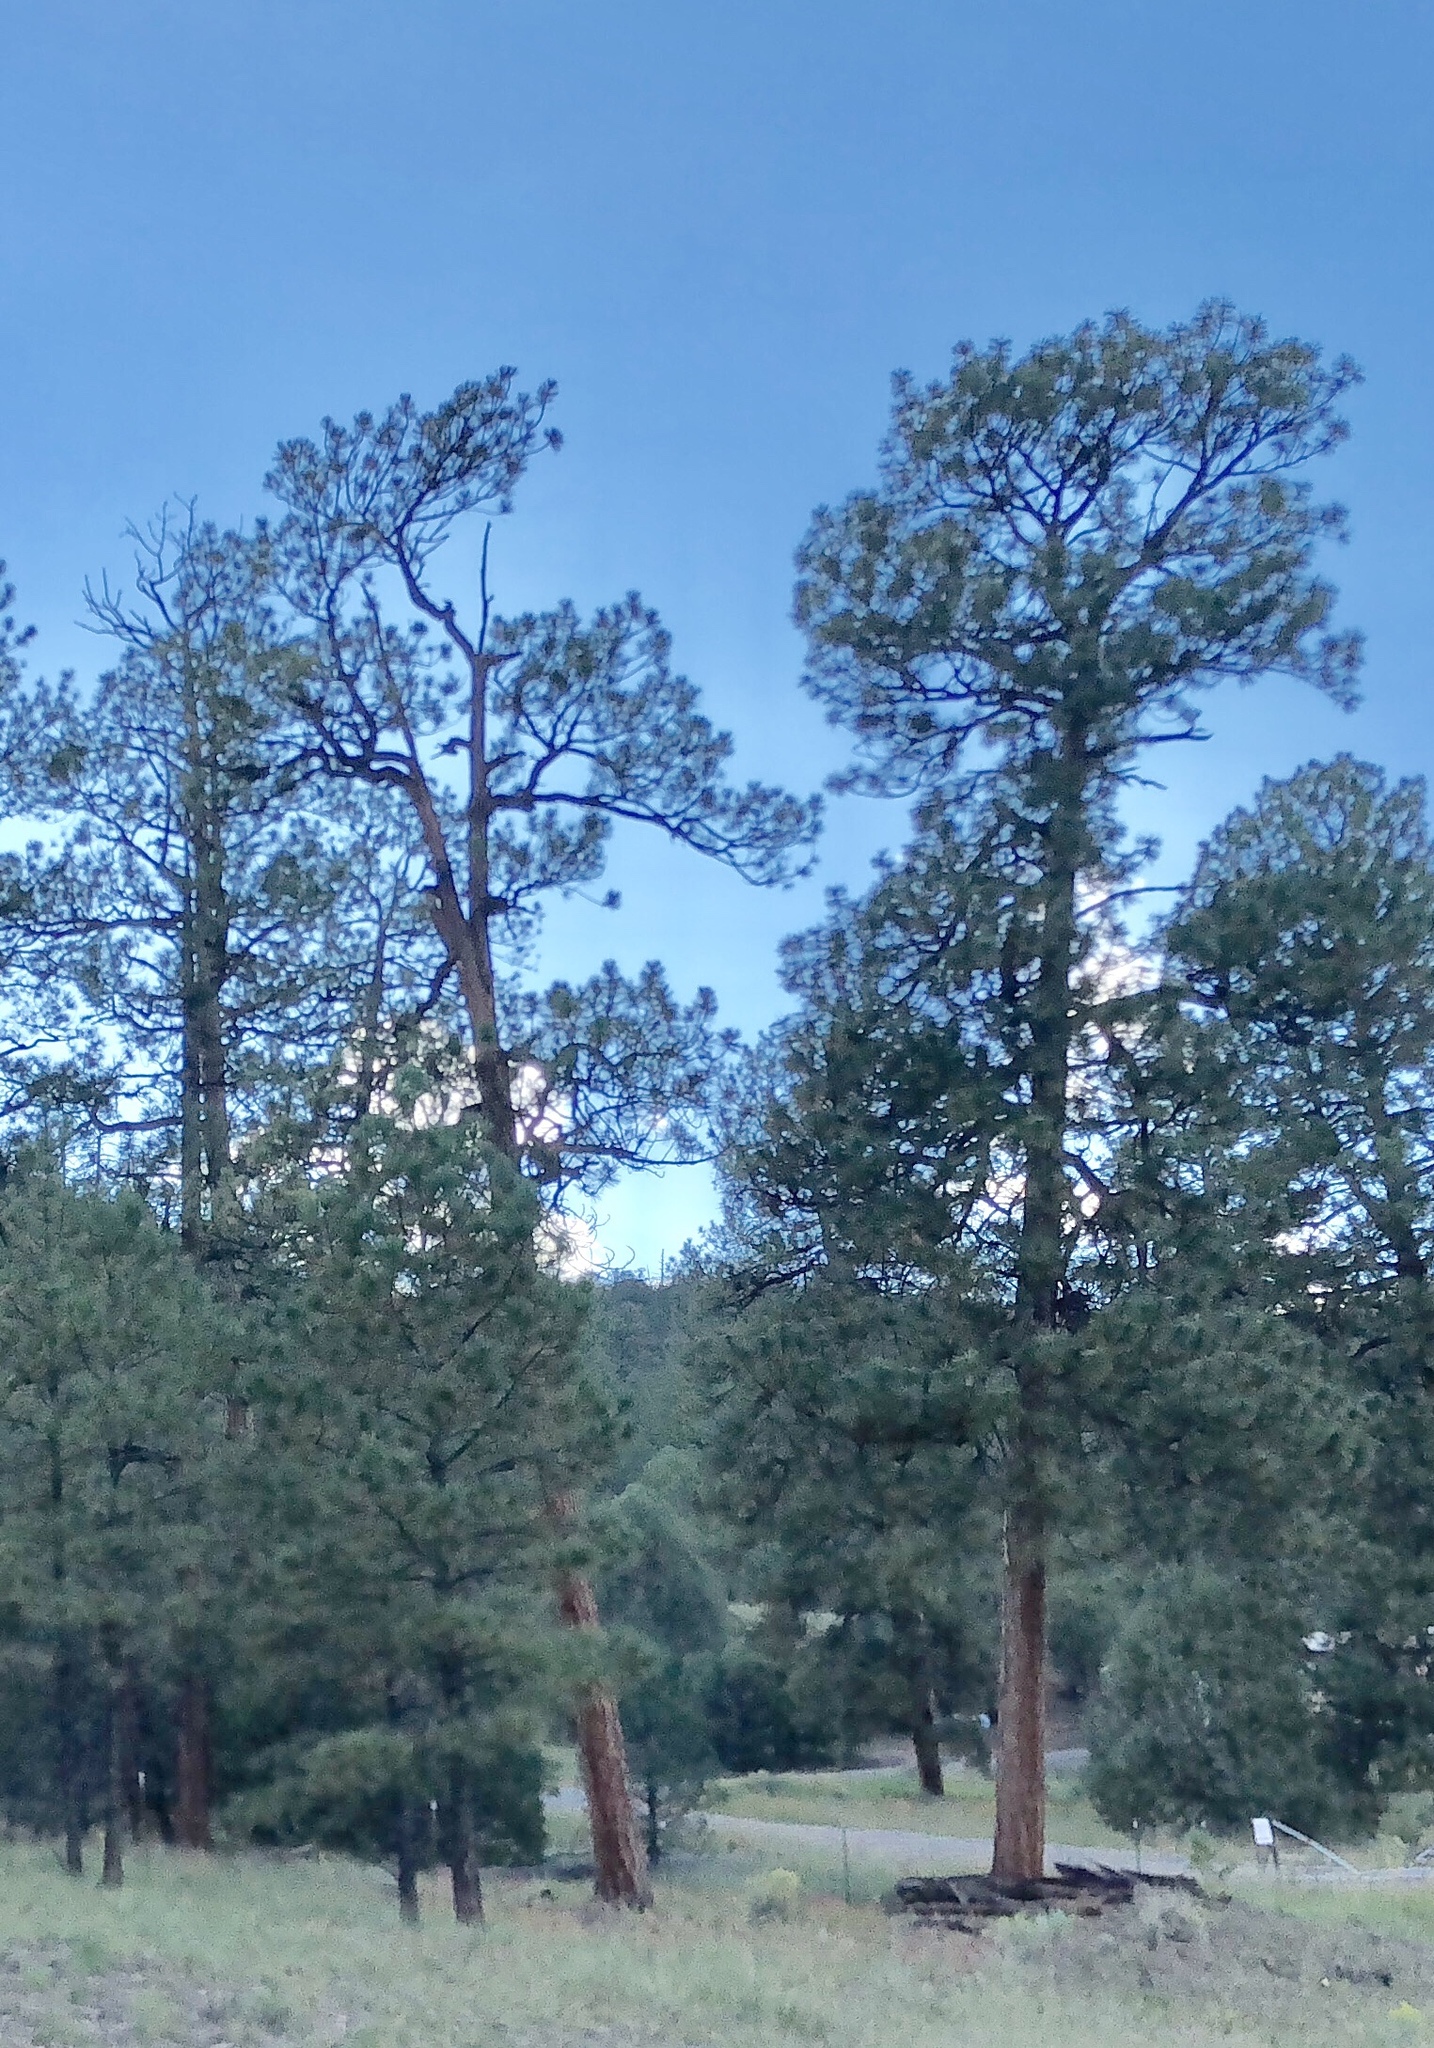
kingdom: Plantae
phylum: Tracheophyta
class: Pinopsida
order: Pinales
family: Pinaceae
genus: Pinus
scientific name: Pinus ponderosa
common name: Western yellow-pine
